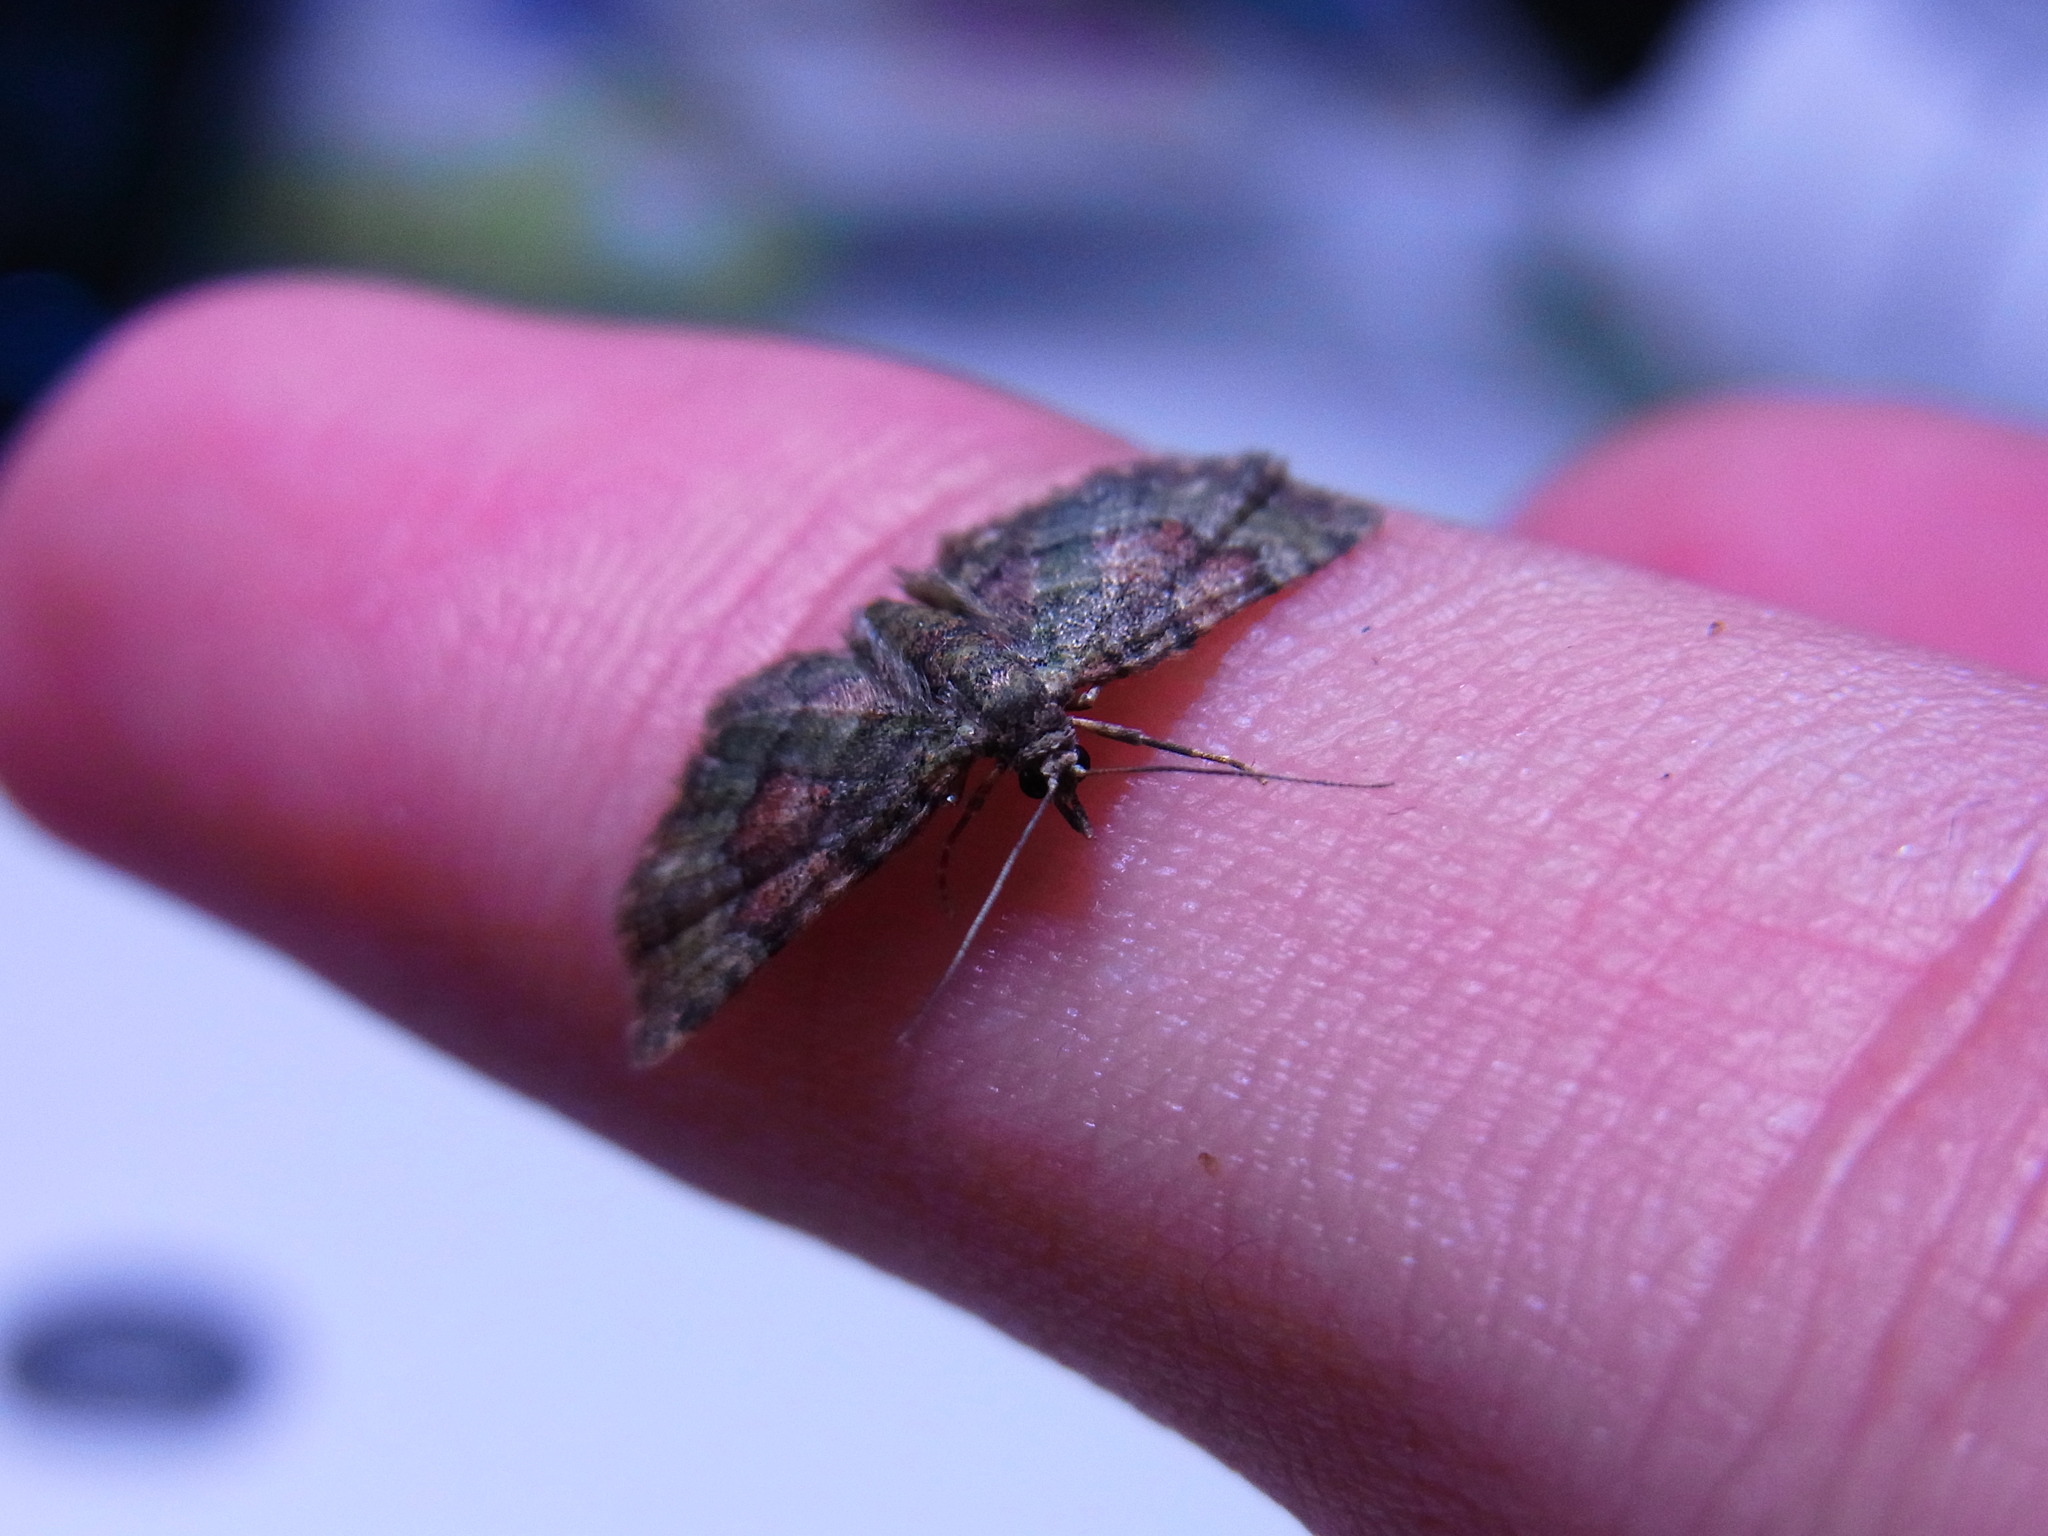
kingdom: Animalia
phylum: Arthropoda
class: Insecta
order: Lepidoptera
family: Geometridae
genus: Gymnoscelis
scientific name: Gymnoscelis esakii
